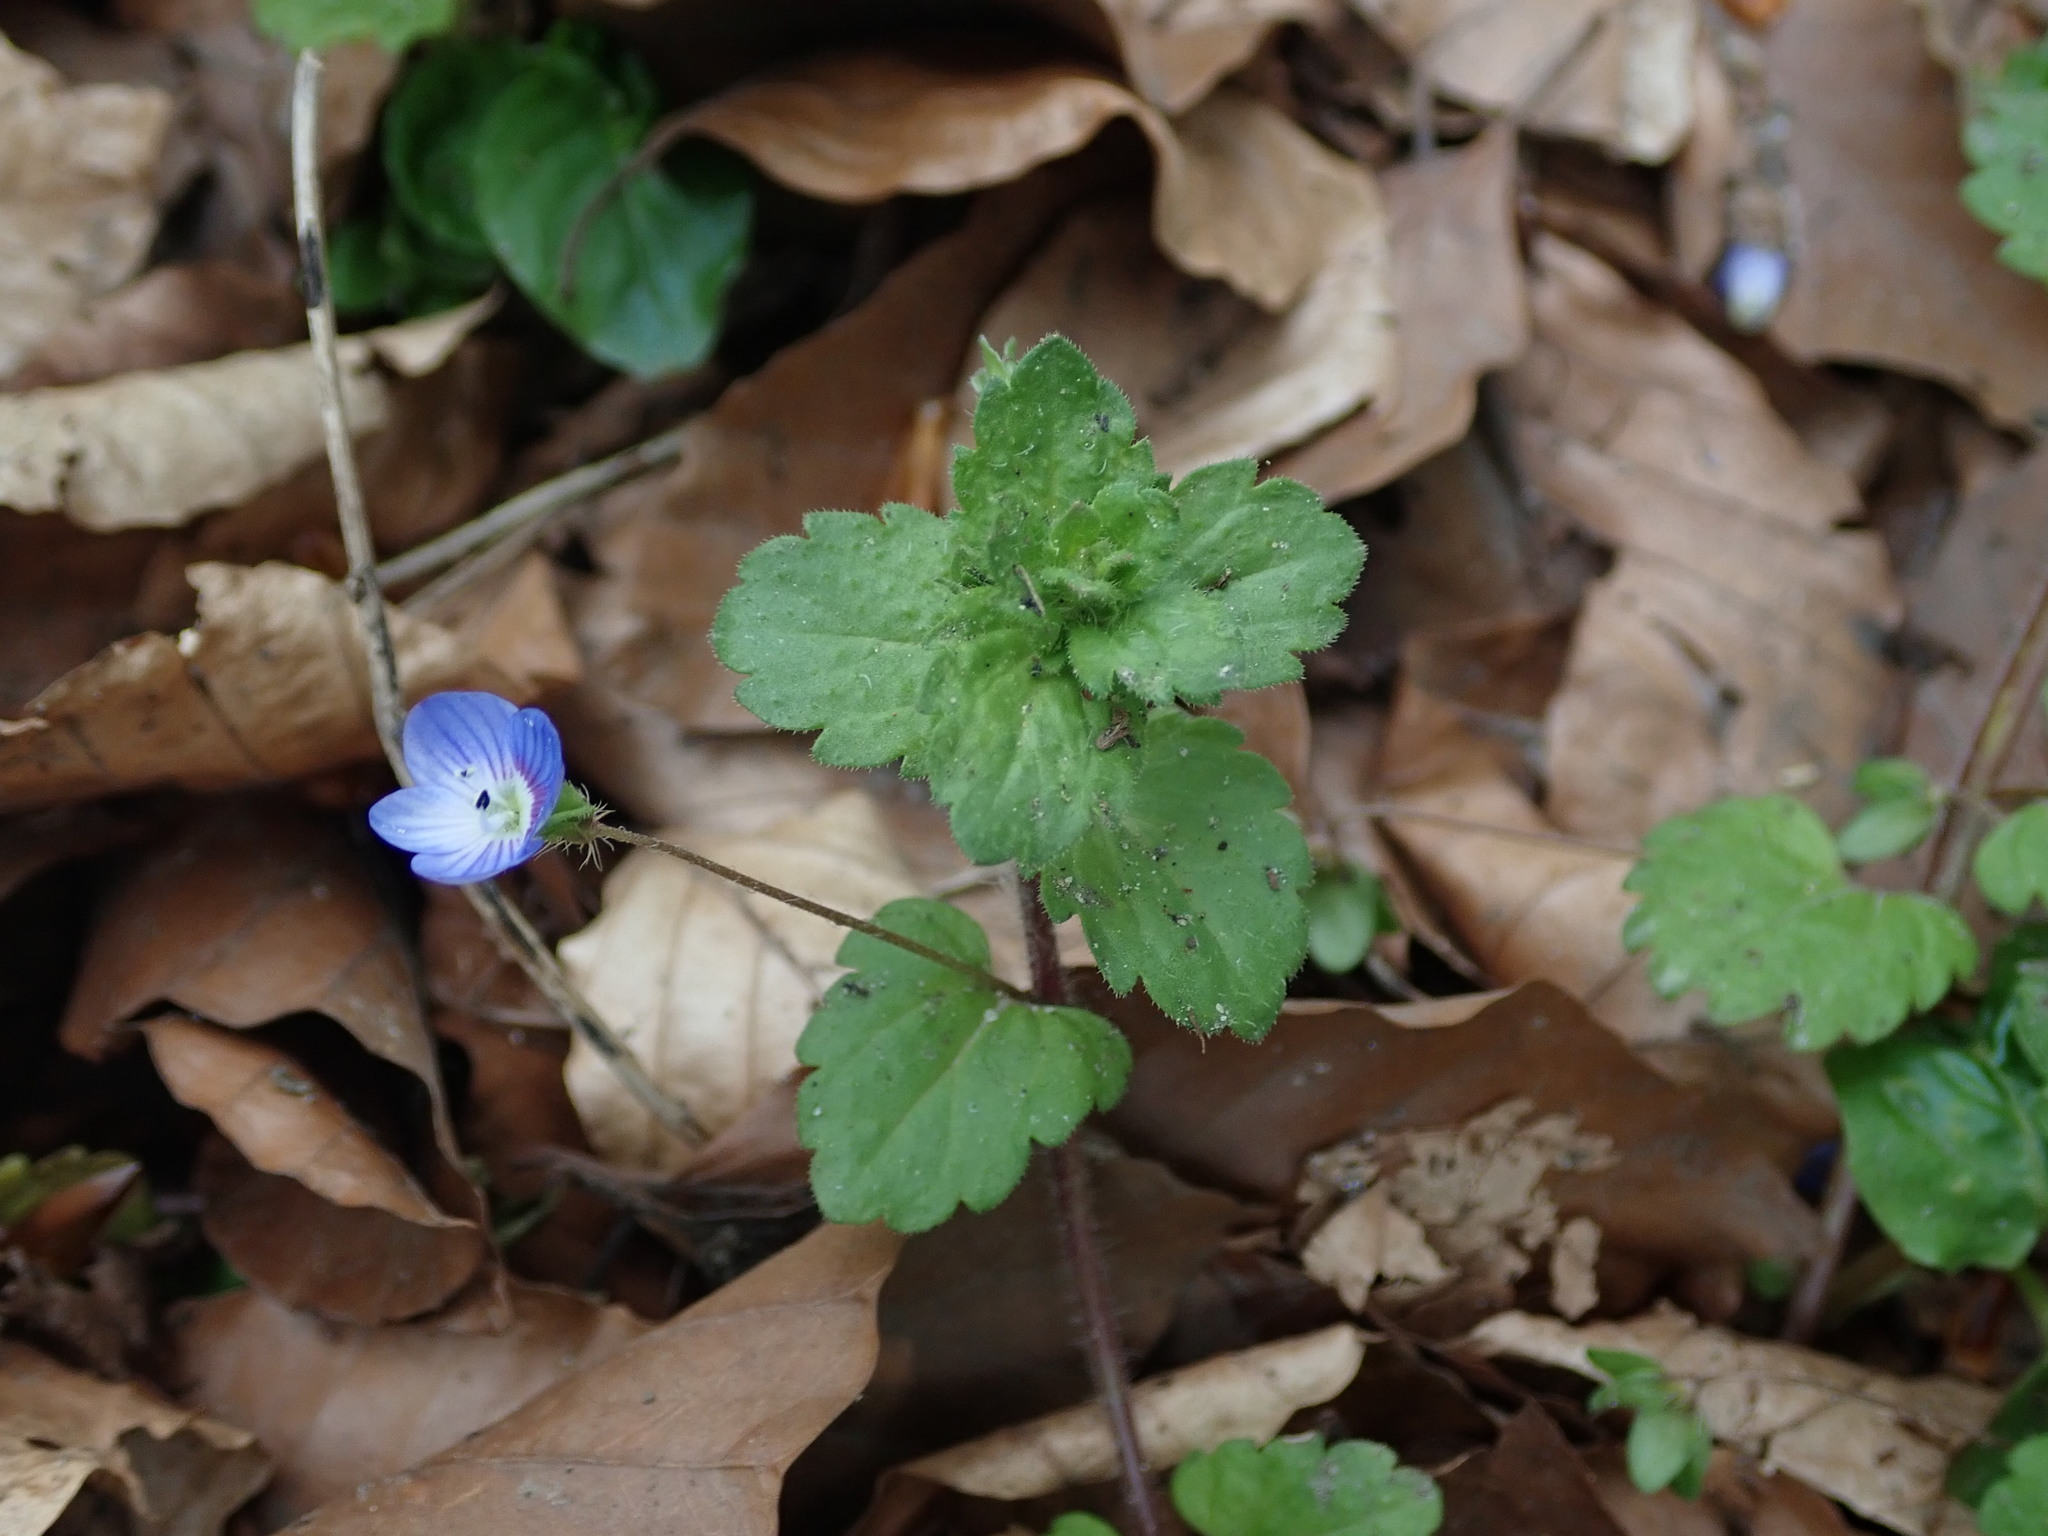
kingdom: Plantae
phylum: Tracheophyta
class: Magnoliopsida
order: Lamiales
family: Plantaginaceae
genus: Veronica
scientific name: Veronica persica
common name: Common field-speedwell
